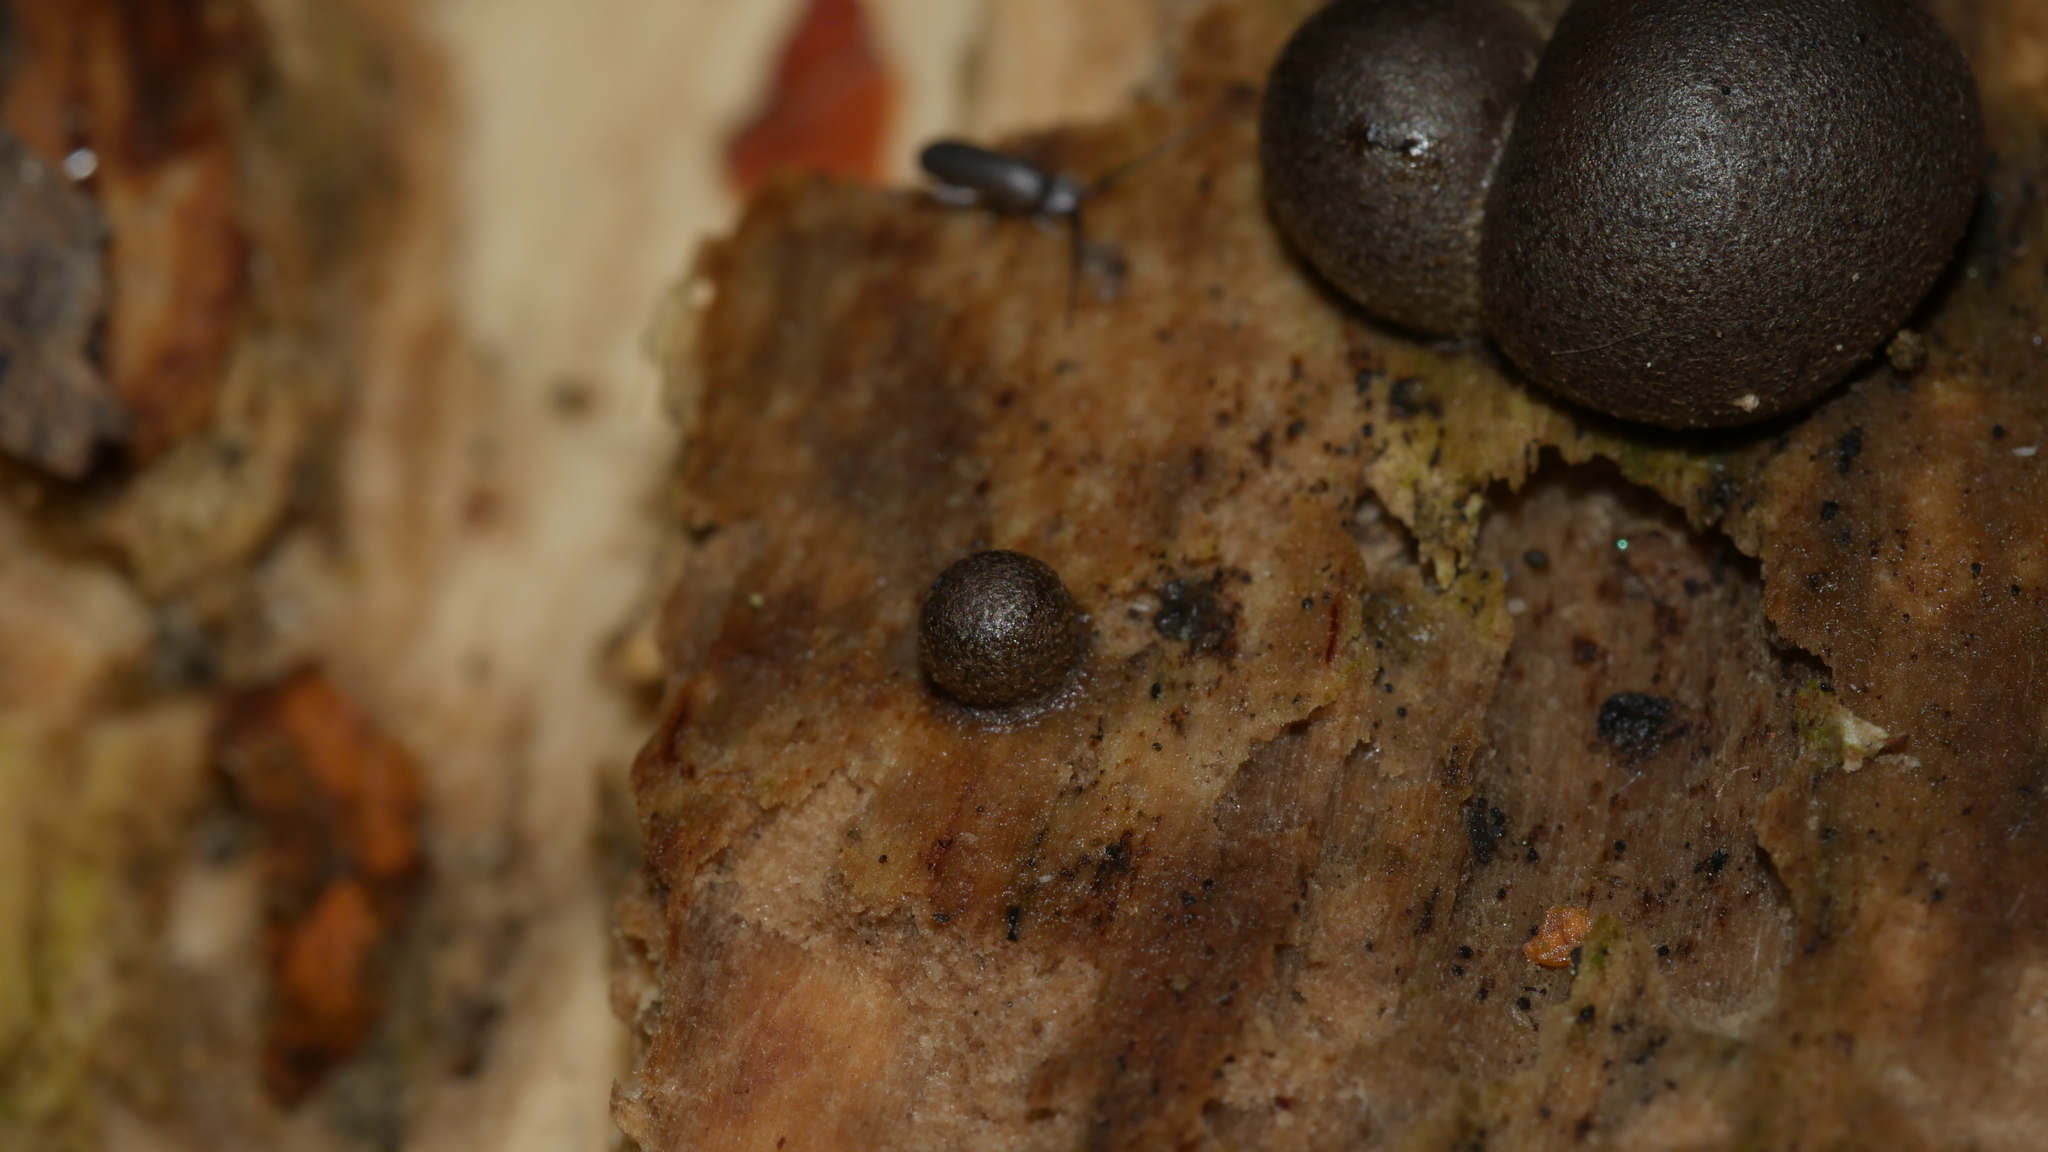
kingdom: Protozoa
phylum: Mycetozoa
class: Myxomycetes
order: Cribrariales
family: Tubiferaceae
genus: Lycogala
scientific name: Lycogala epidendrum
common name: Wolf's milk
